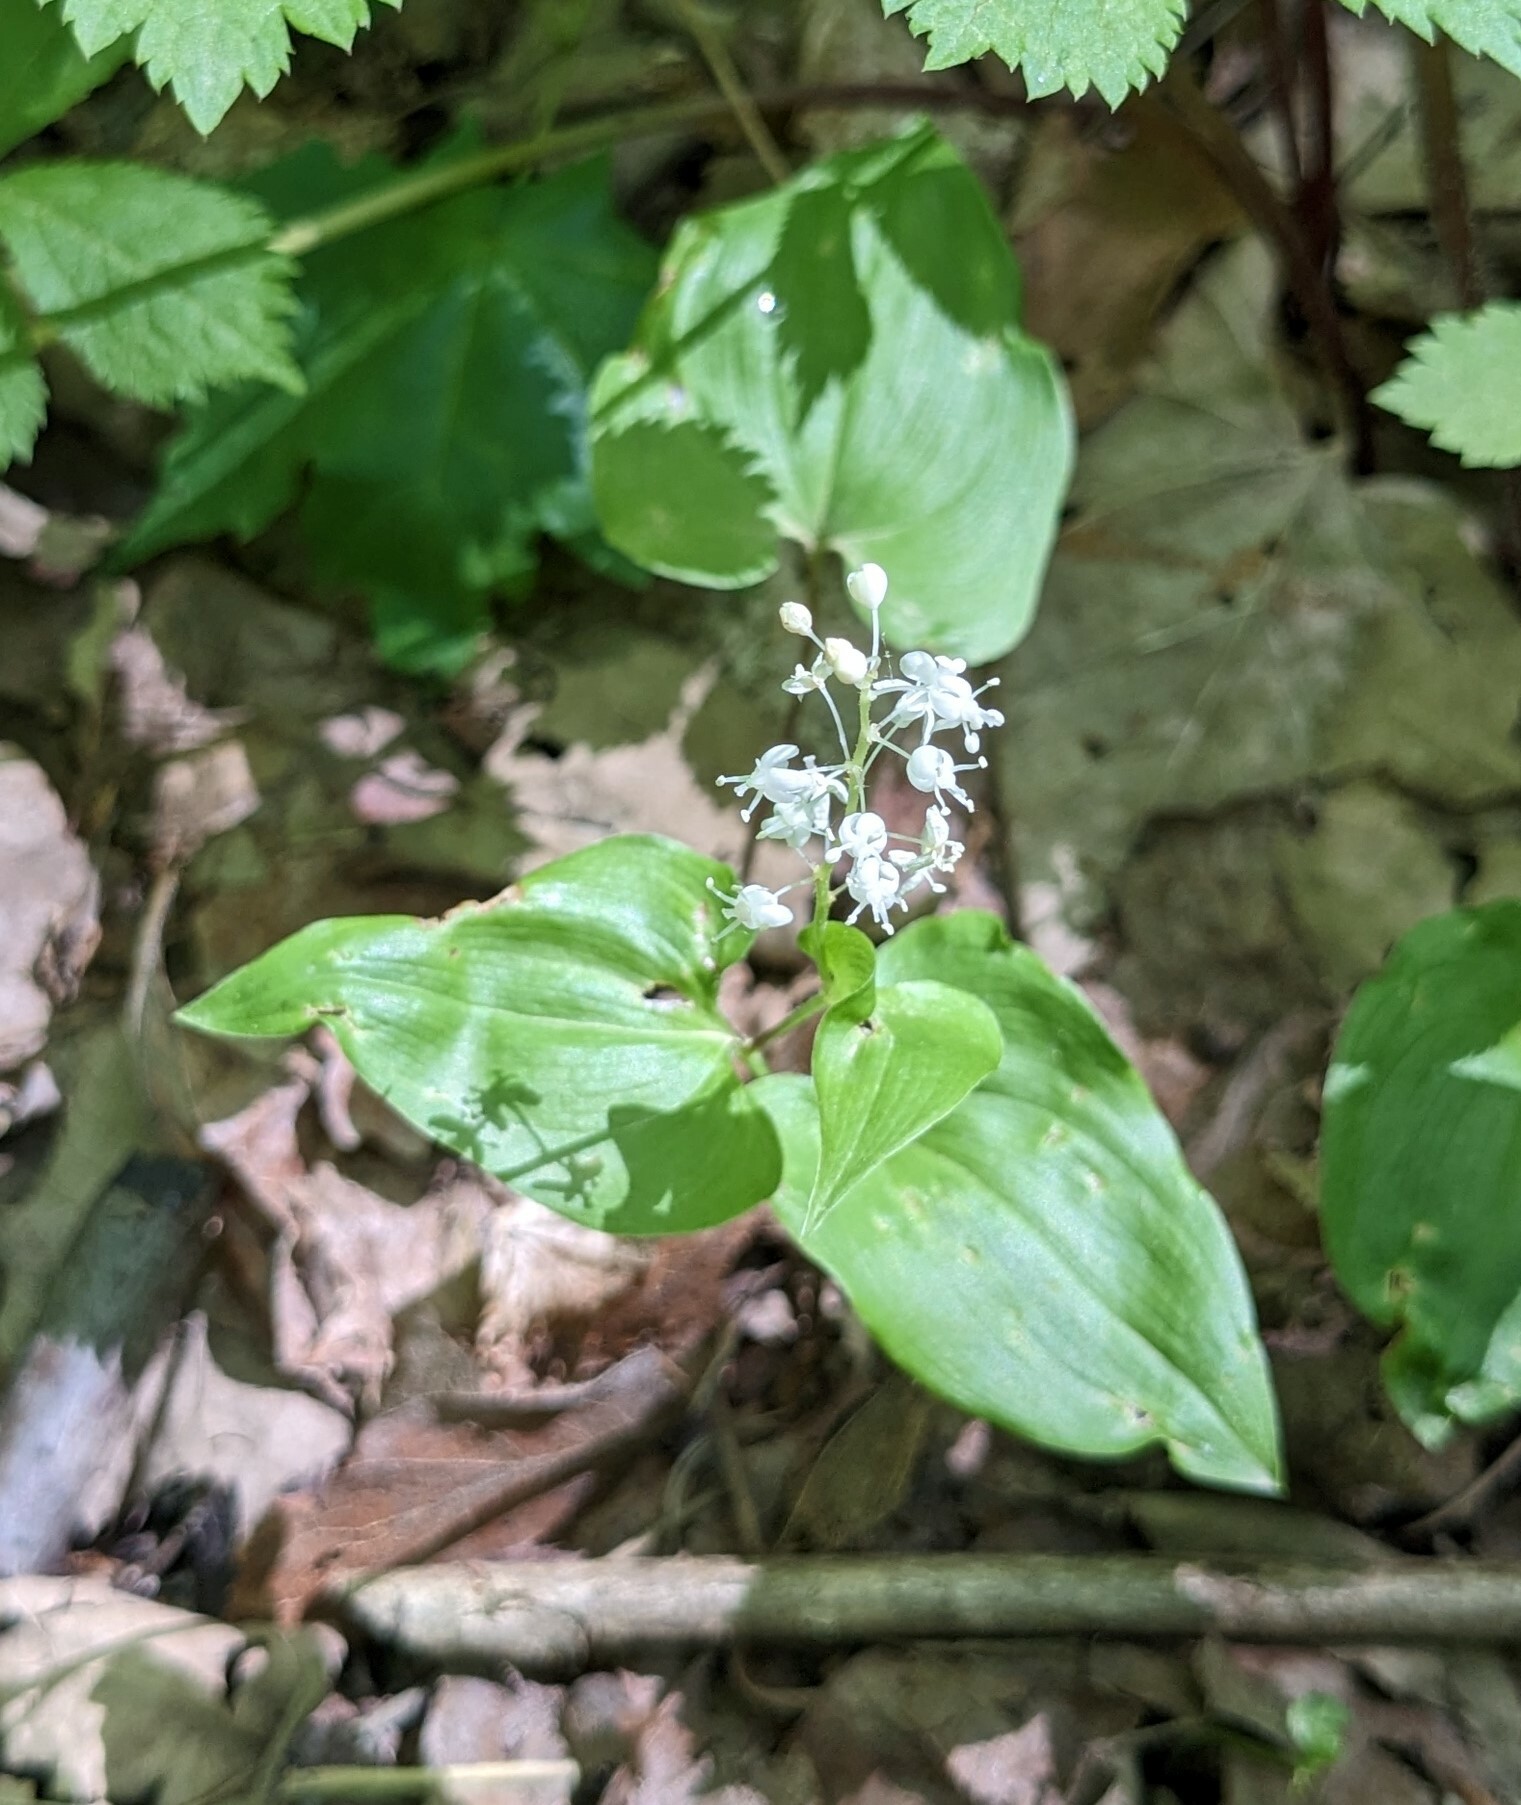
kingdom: Plantae
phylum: Tracheophyta
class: Liliopsida
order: Asparagales
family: Asparagaceae
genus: Maianthemum
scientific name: Maianthemum bifolium
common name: May lily
